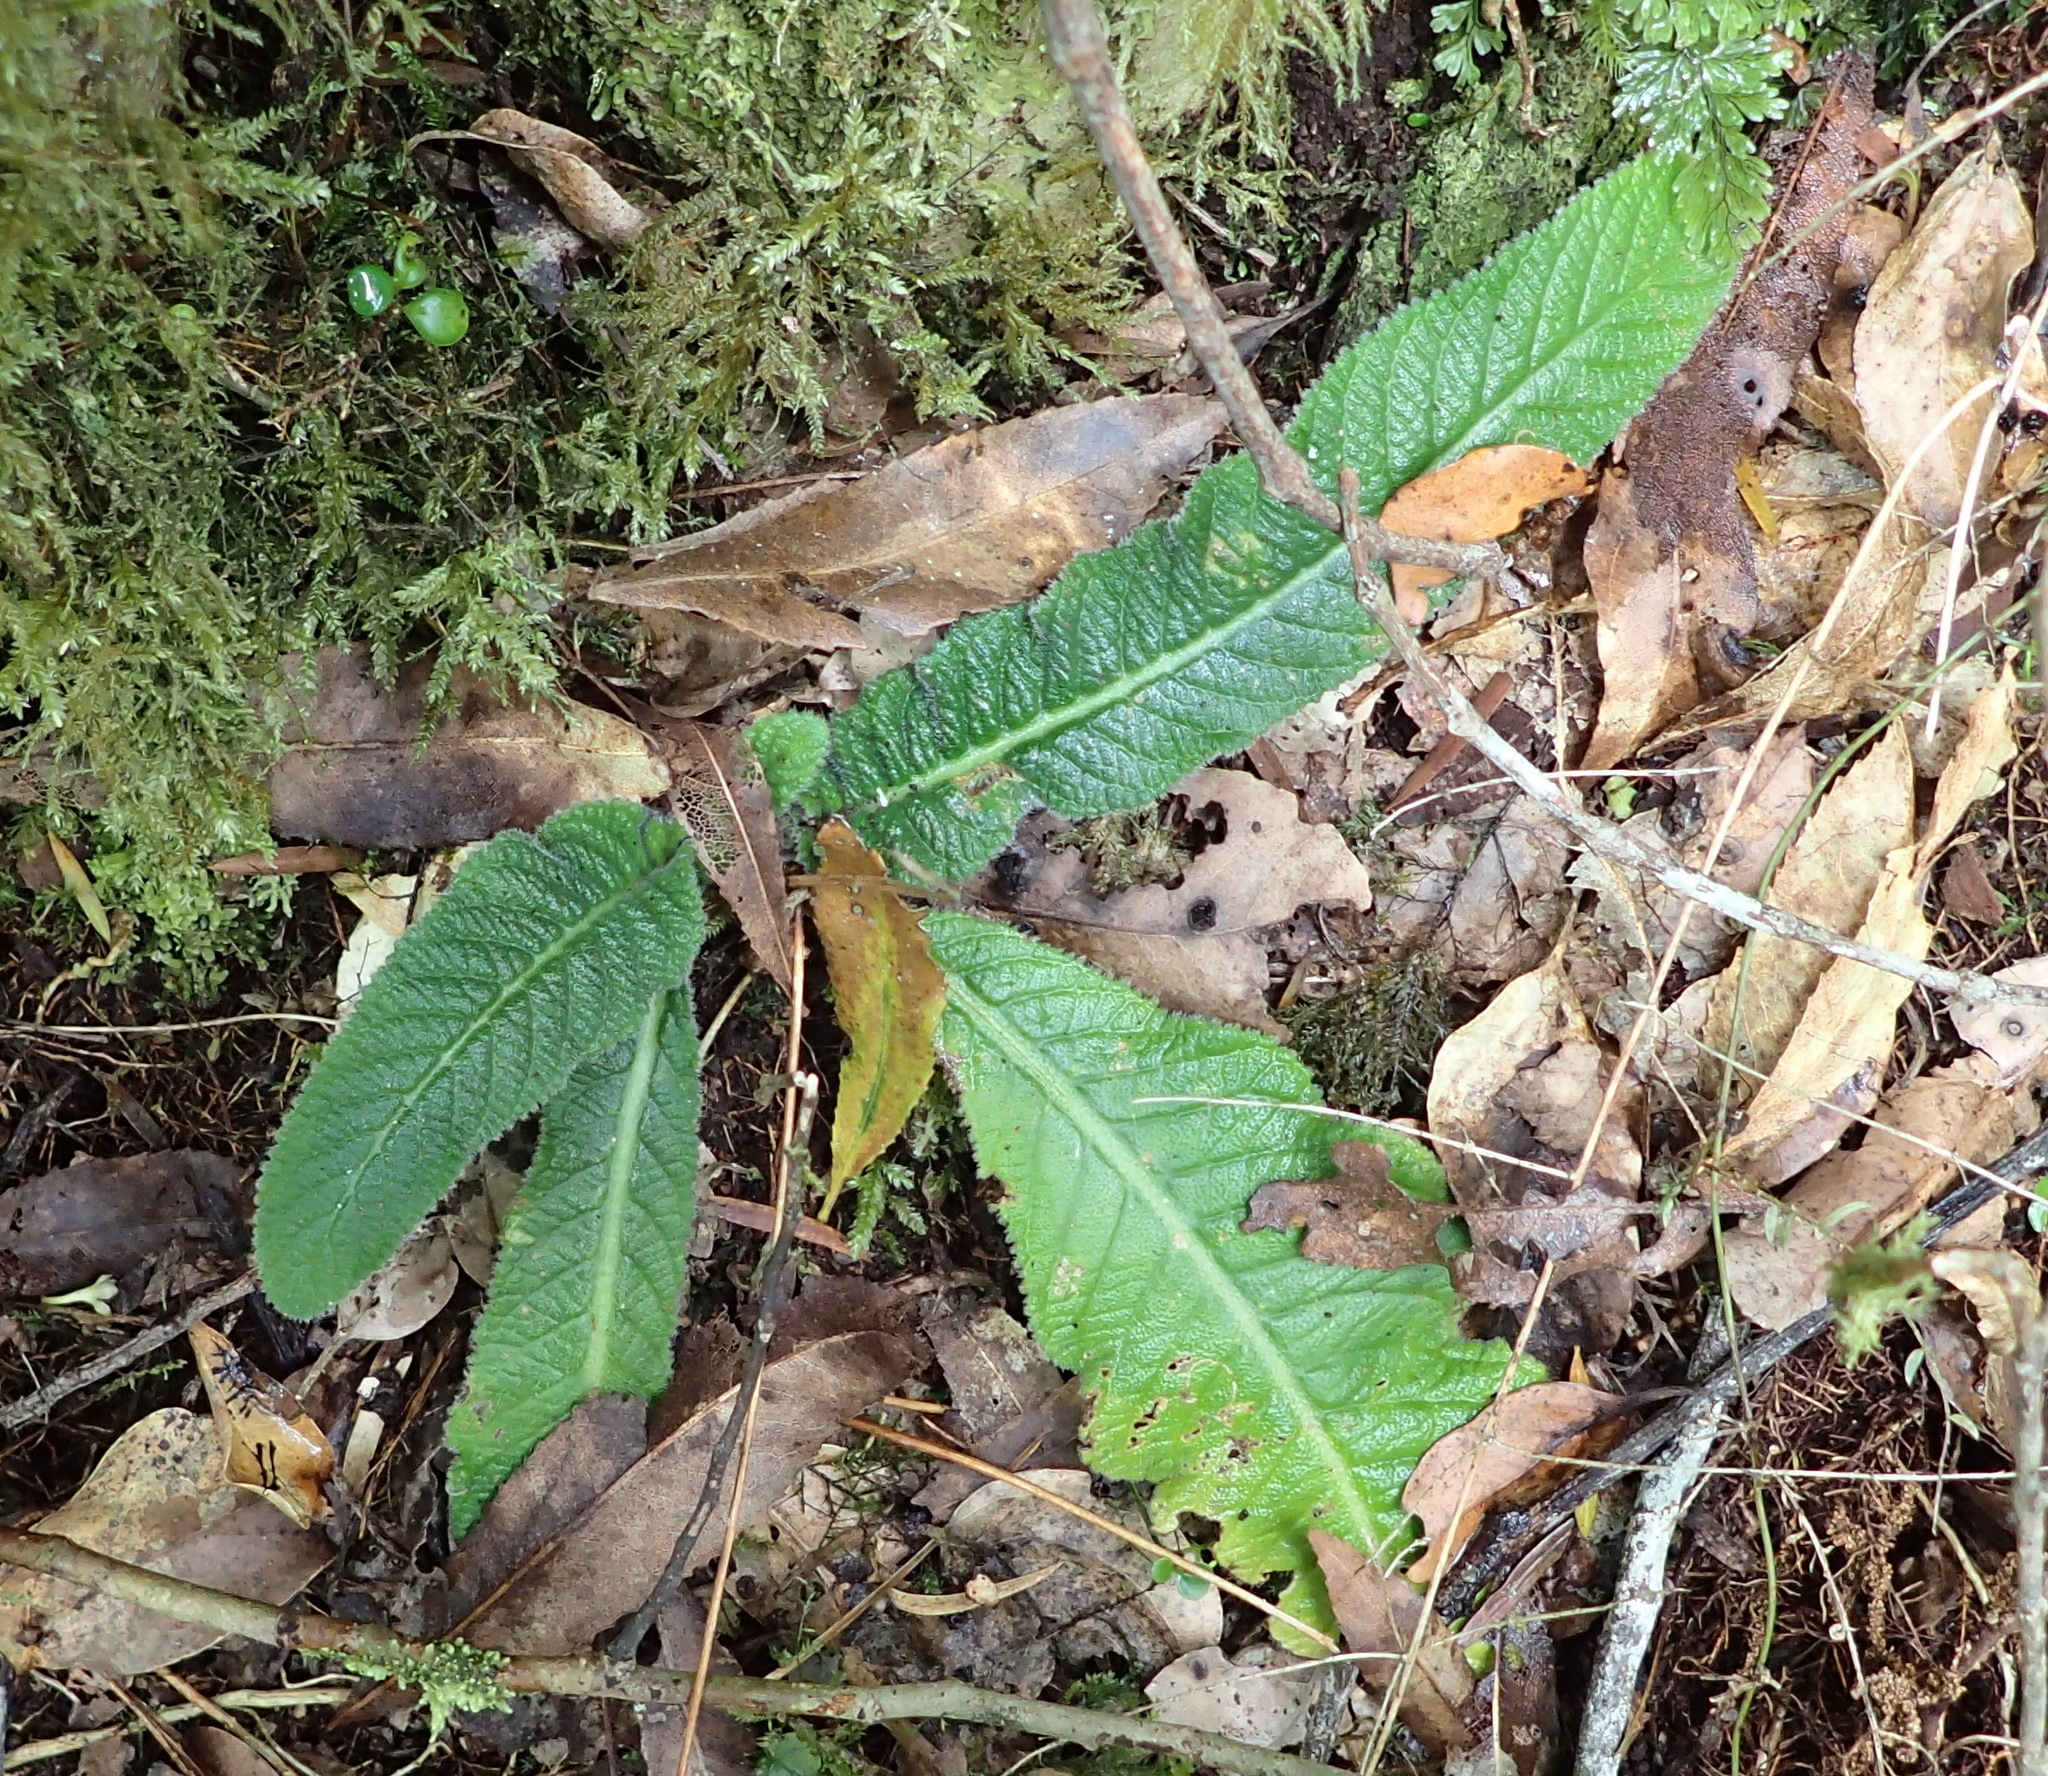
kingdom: Plantae
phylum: Tracheophyta
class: Magnoliopsida
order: Lamiales
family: Gesneriaceae
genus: Streptocarpus
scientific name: Streptocarpus rexii
